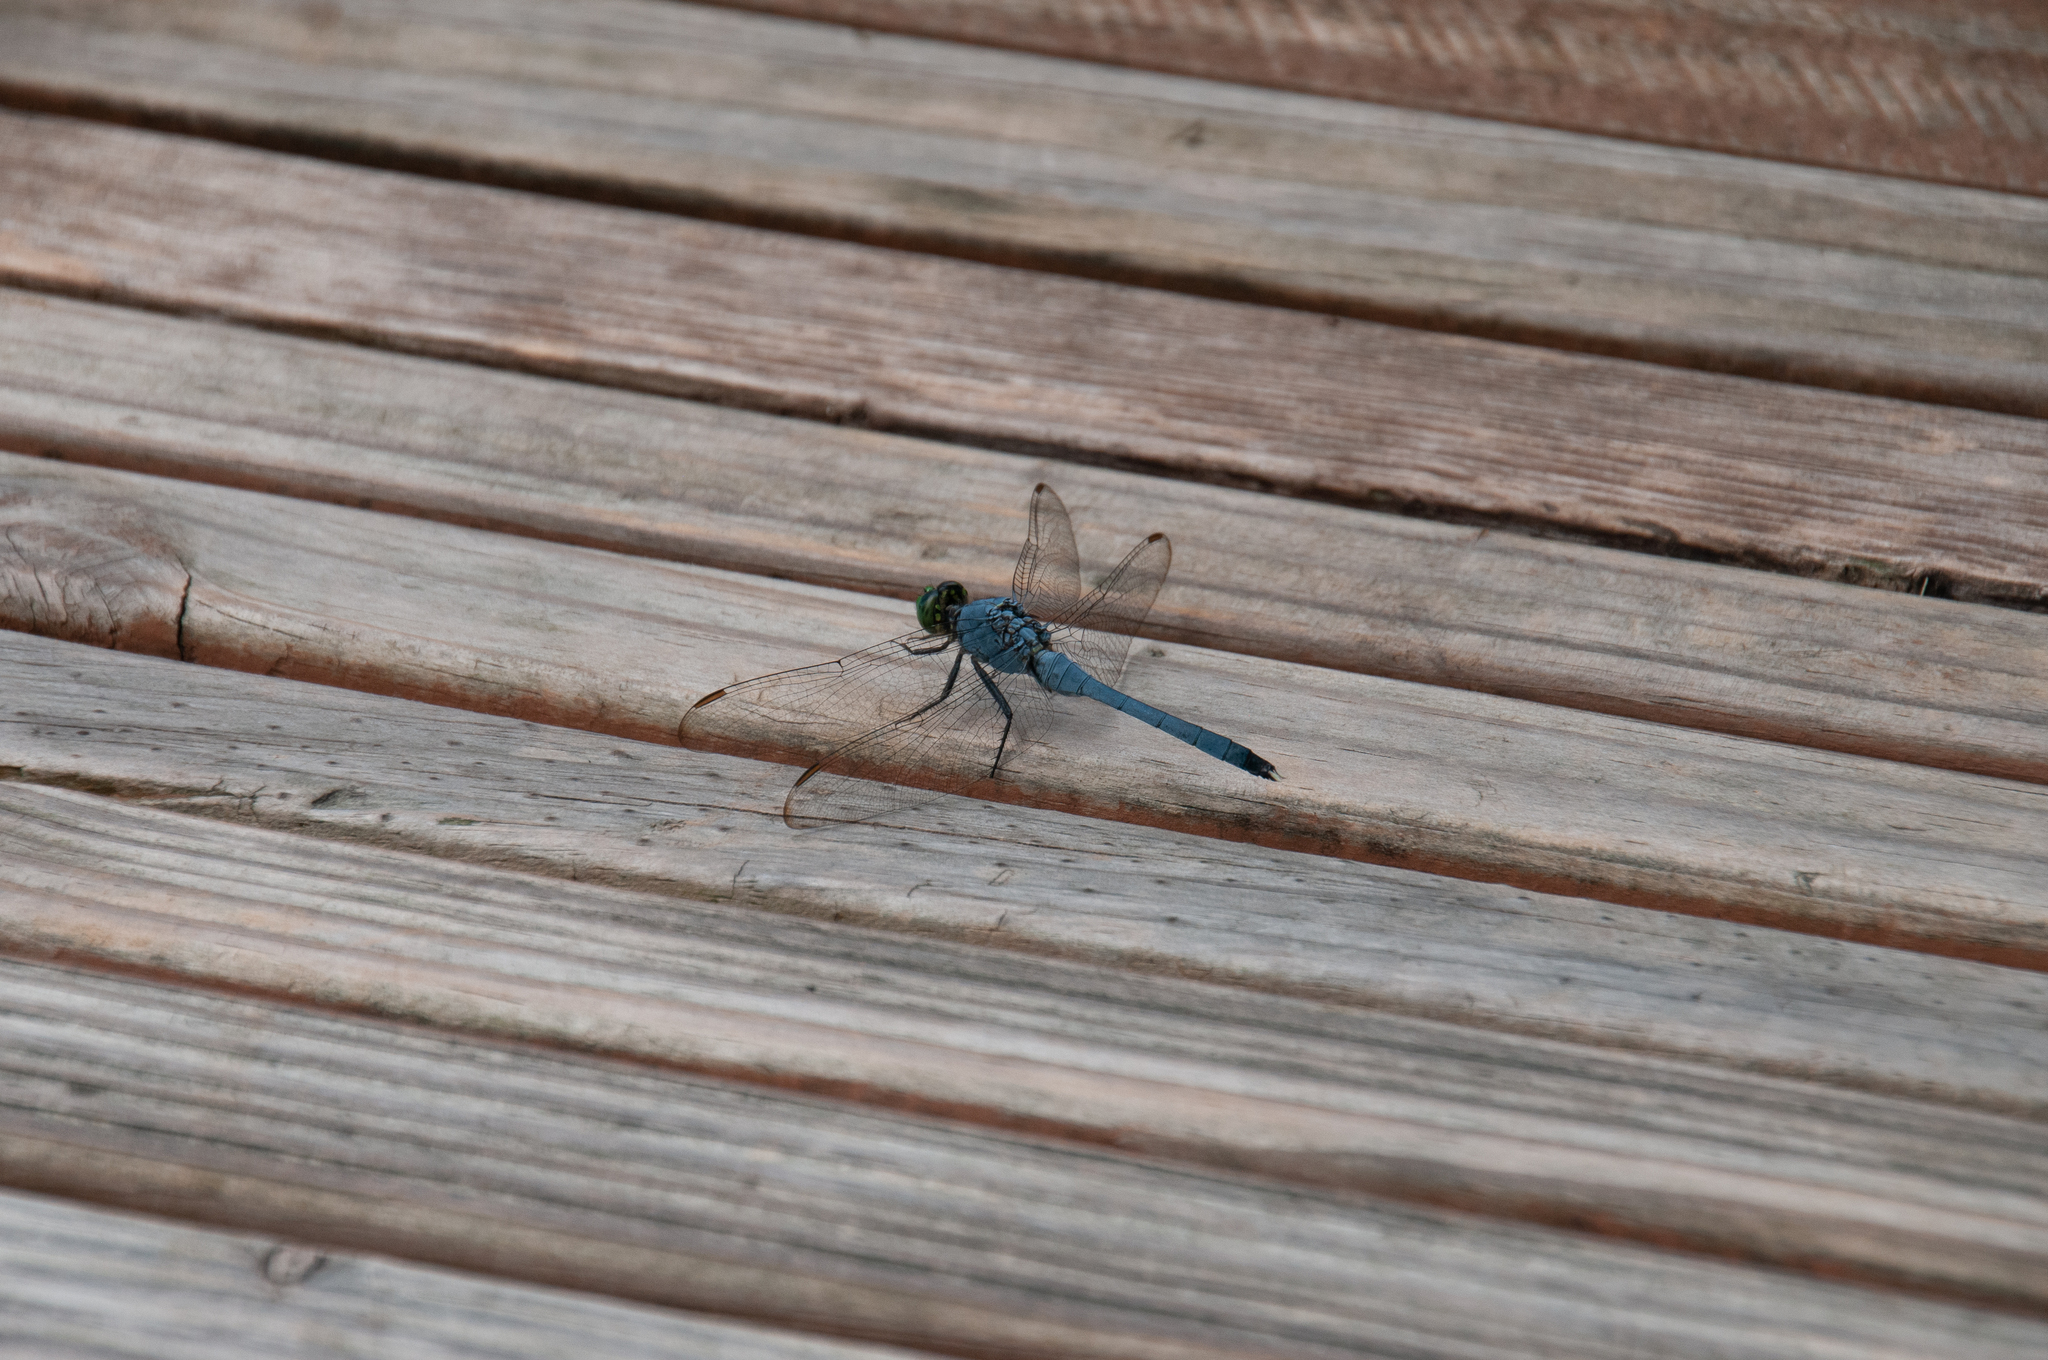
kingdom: Animalia
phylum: Arthropoda
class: Insecta
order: Odonata
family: Libellulidae
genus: Erythemis
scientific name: Erythemis simplicicollis
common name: Eastern pondhawk
